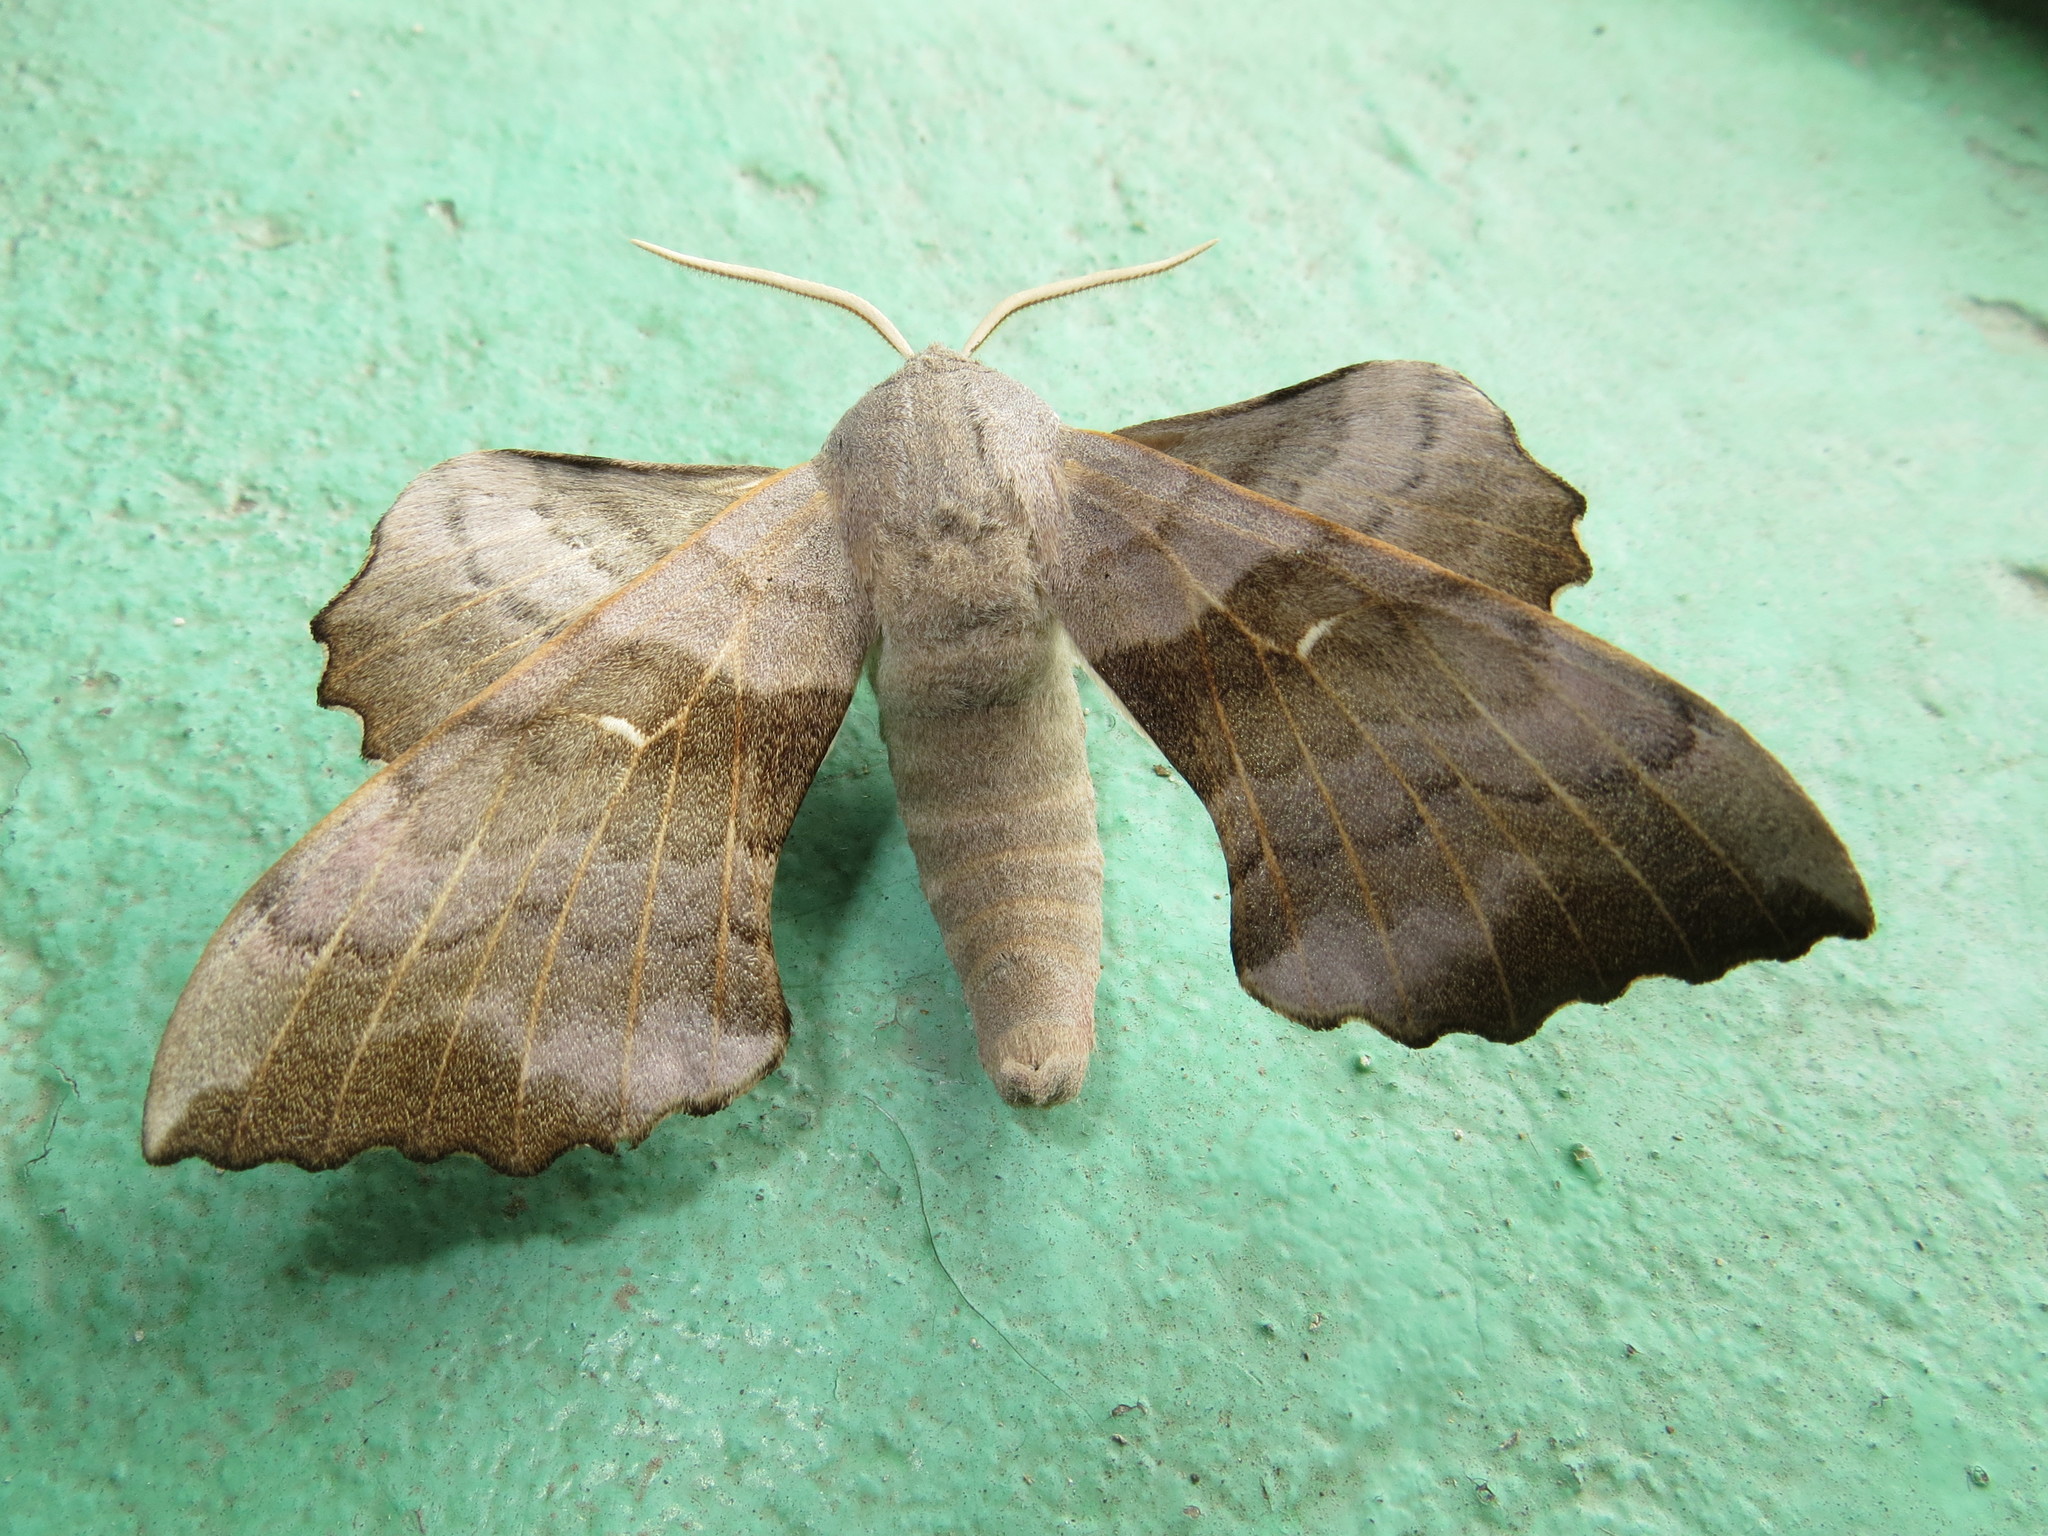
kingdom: Animalia
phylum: Arthropoda
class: Insecta
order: Lepidoptera
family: Sphingidae
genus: Laothoe
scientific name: Laothoe populi
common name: Poplar hawk-moth
